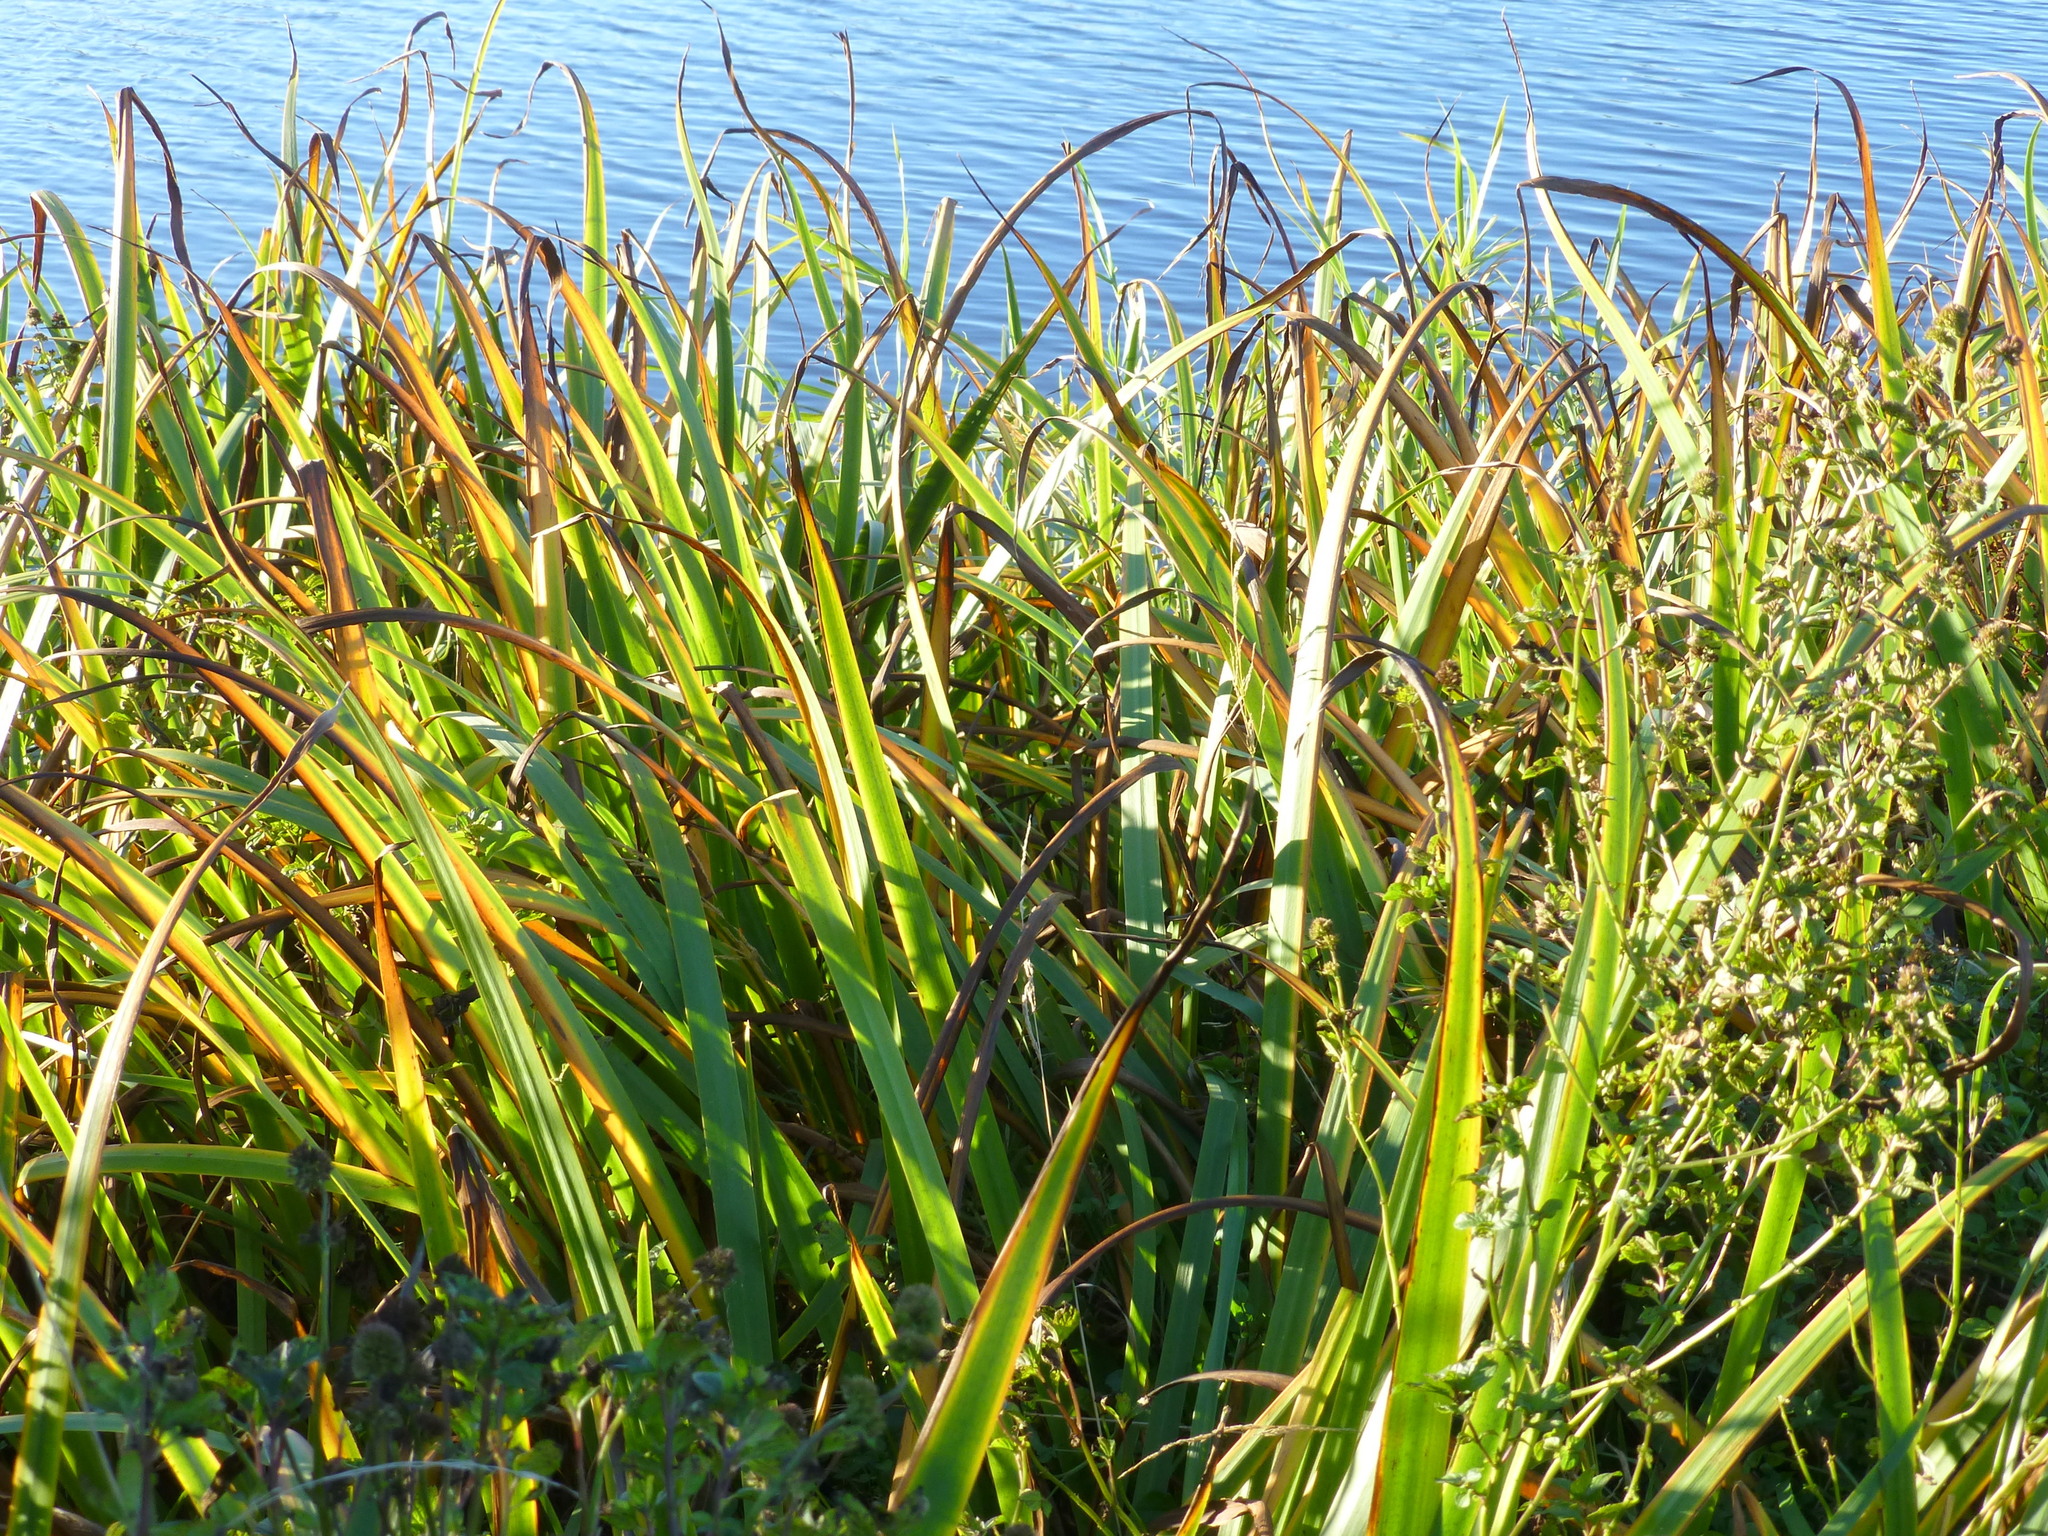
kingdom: Plantae
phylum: Tracheophyta
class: Liliopsida
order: Asparagales
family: Iridaceae
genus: Iris
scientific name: Iris pseudacorus
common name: Yellow flag
